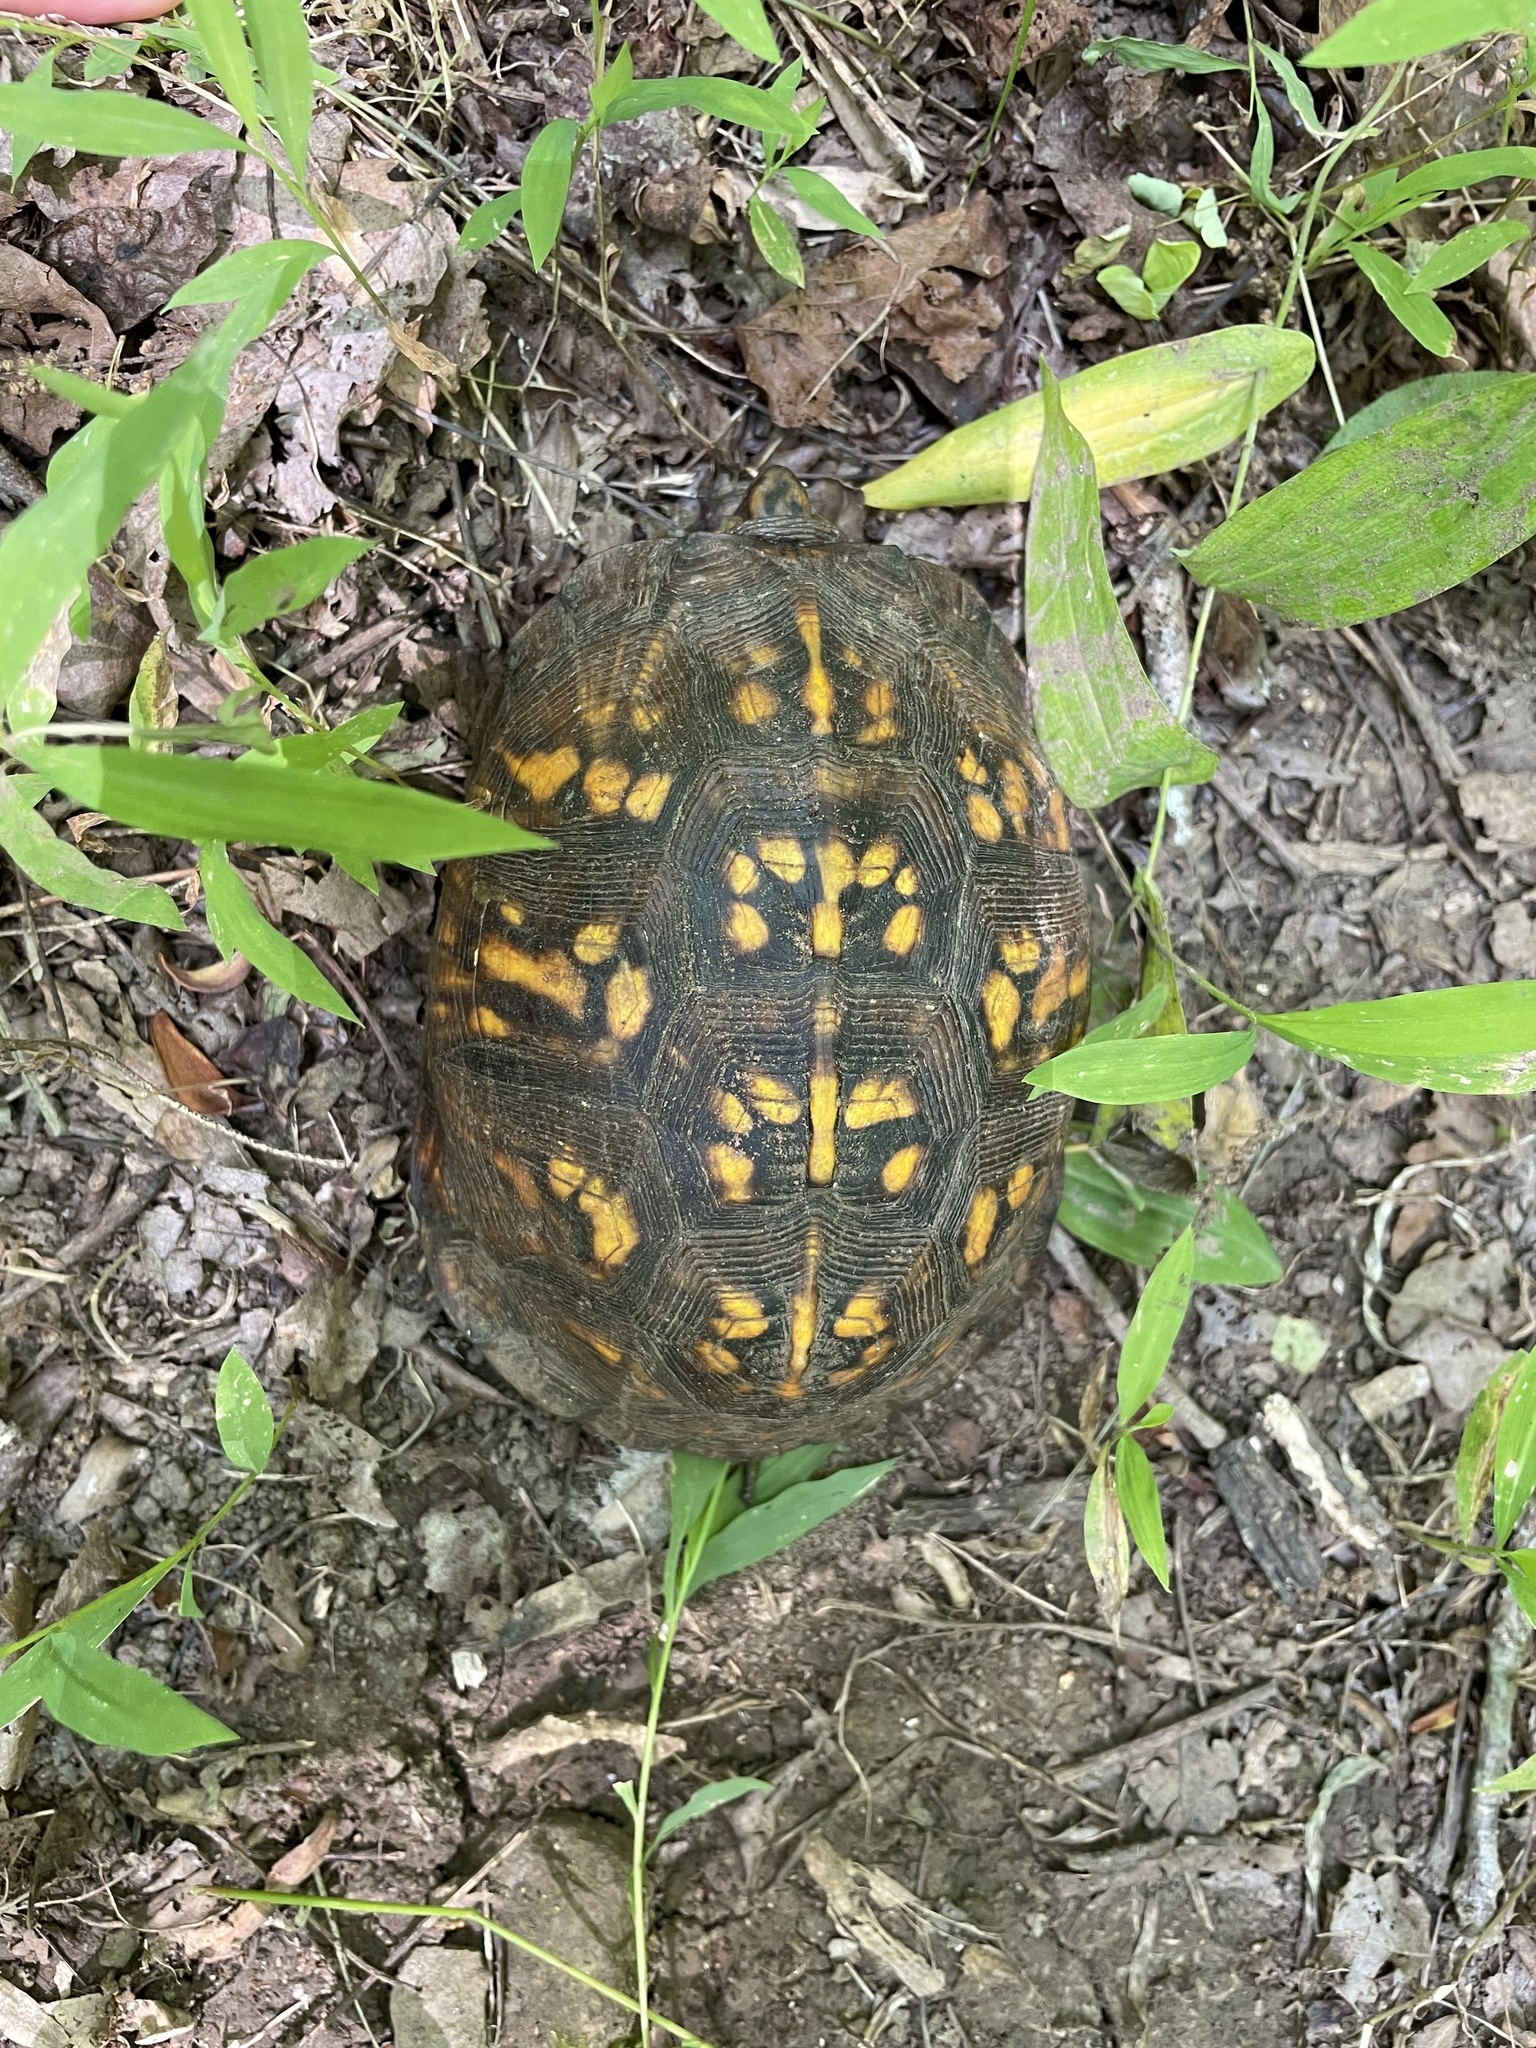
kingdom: Animalia
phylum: Chordata
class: Testudines
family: Emydidae
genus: Terrapene
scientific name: Terrapene carolina
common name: Common box turtle
